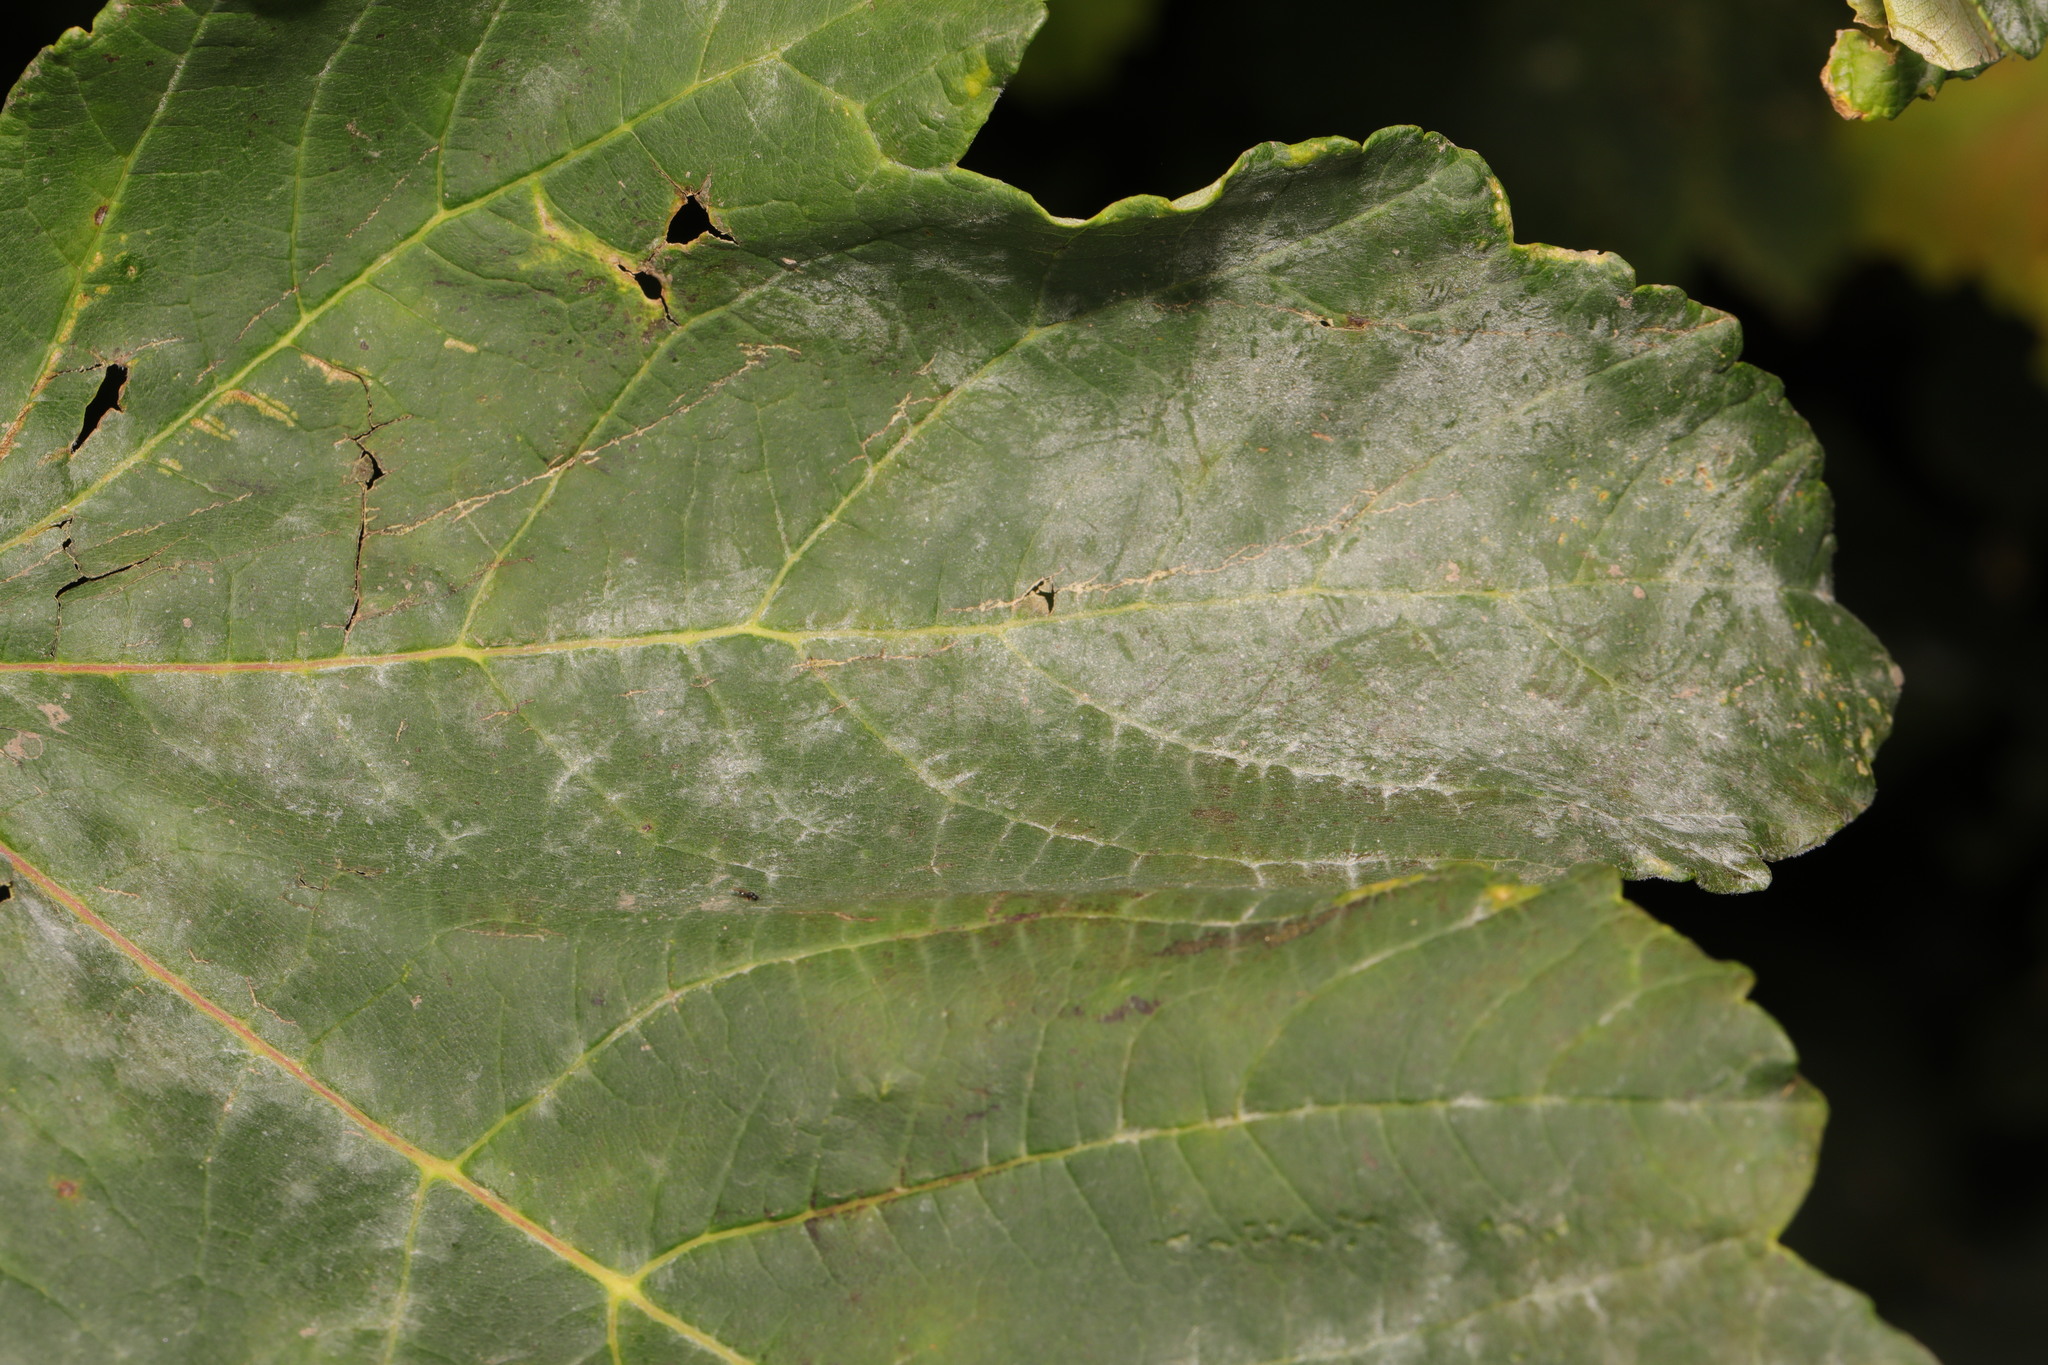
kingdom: Fungi
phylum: Ascomycota
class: Leotiomycetes
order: Helotiales
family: Erysiphaceae
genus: Sawadaea
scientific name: Sawadaea bicornis
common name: Maple mildew
